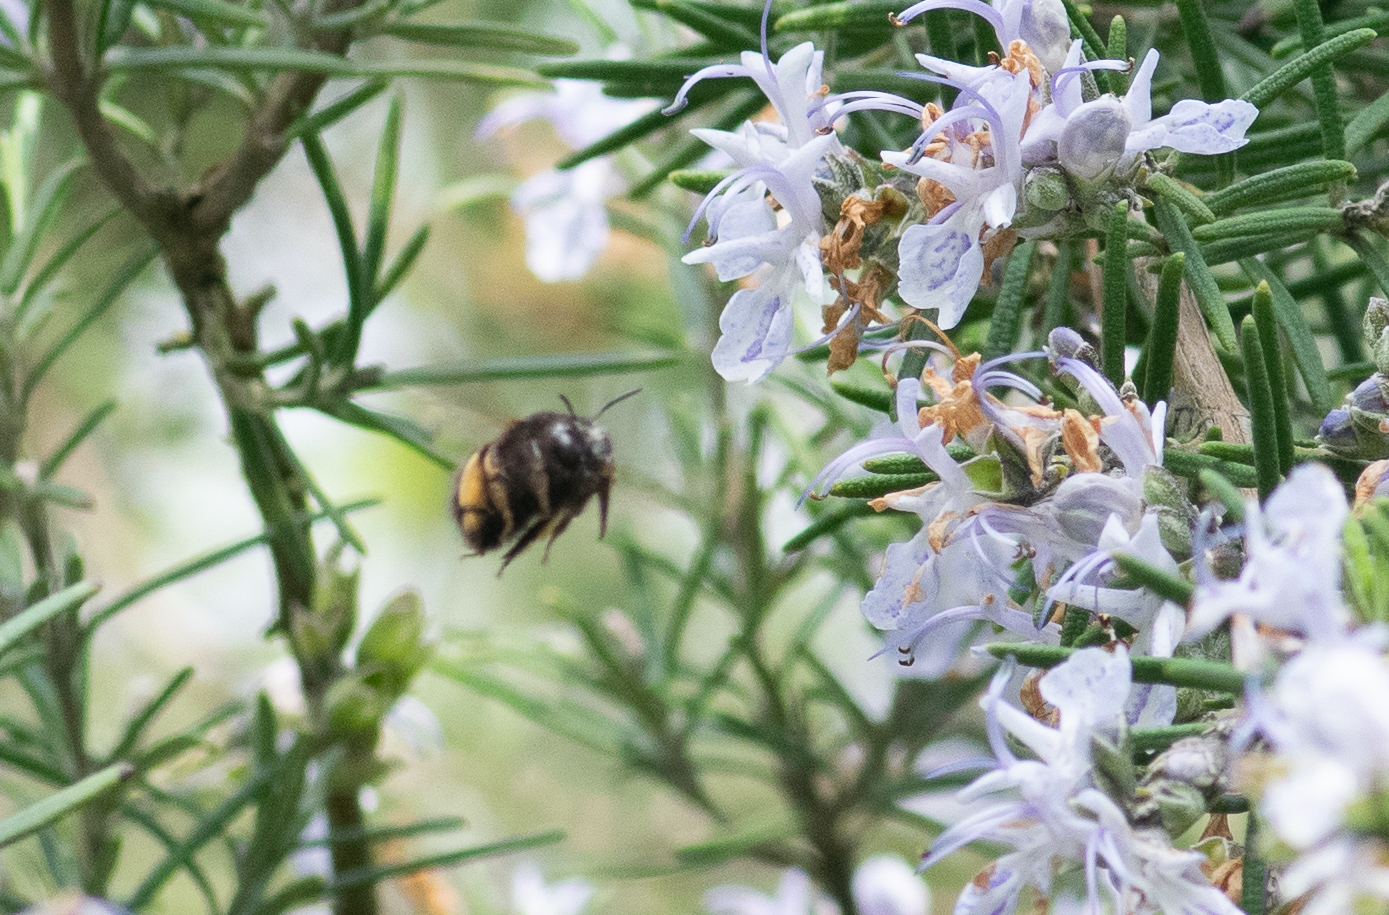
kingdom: Animalia
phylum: Arthropoda
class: Insecta
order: Hymenoptera
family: Apidae
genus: Anthophora
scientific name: Anthophora plumipes
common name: Hairy-footed flower bee
